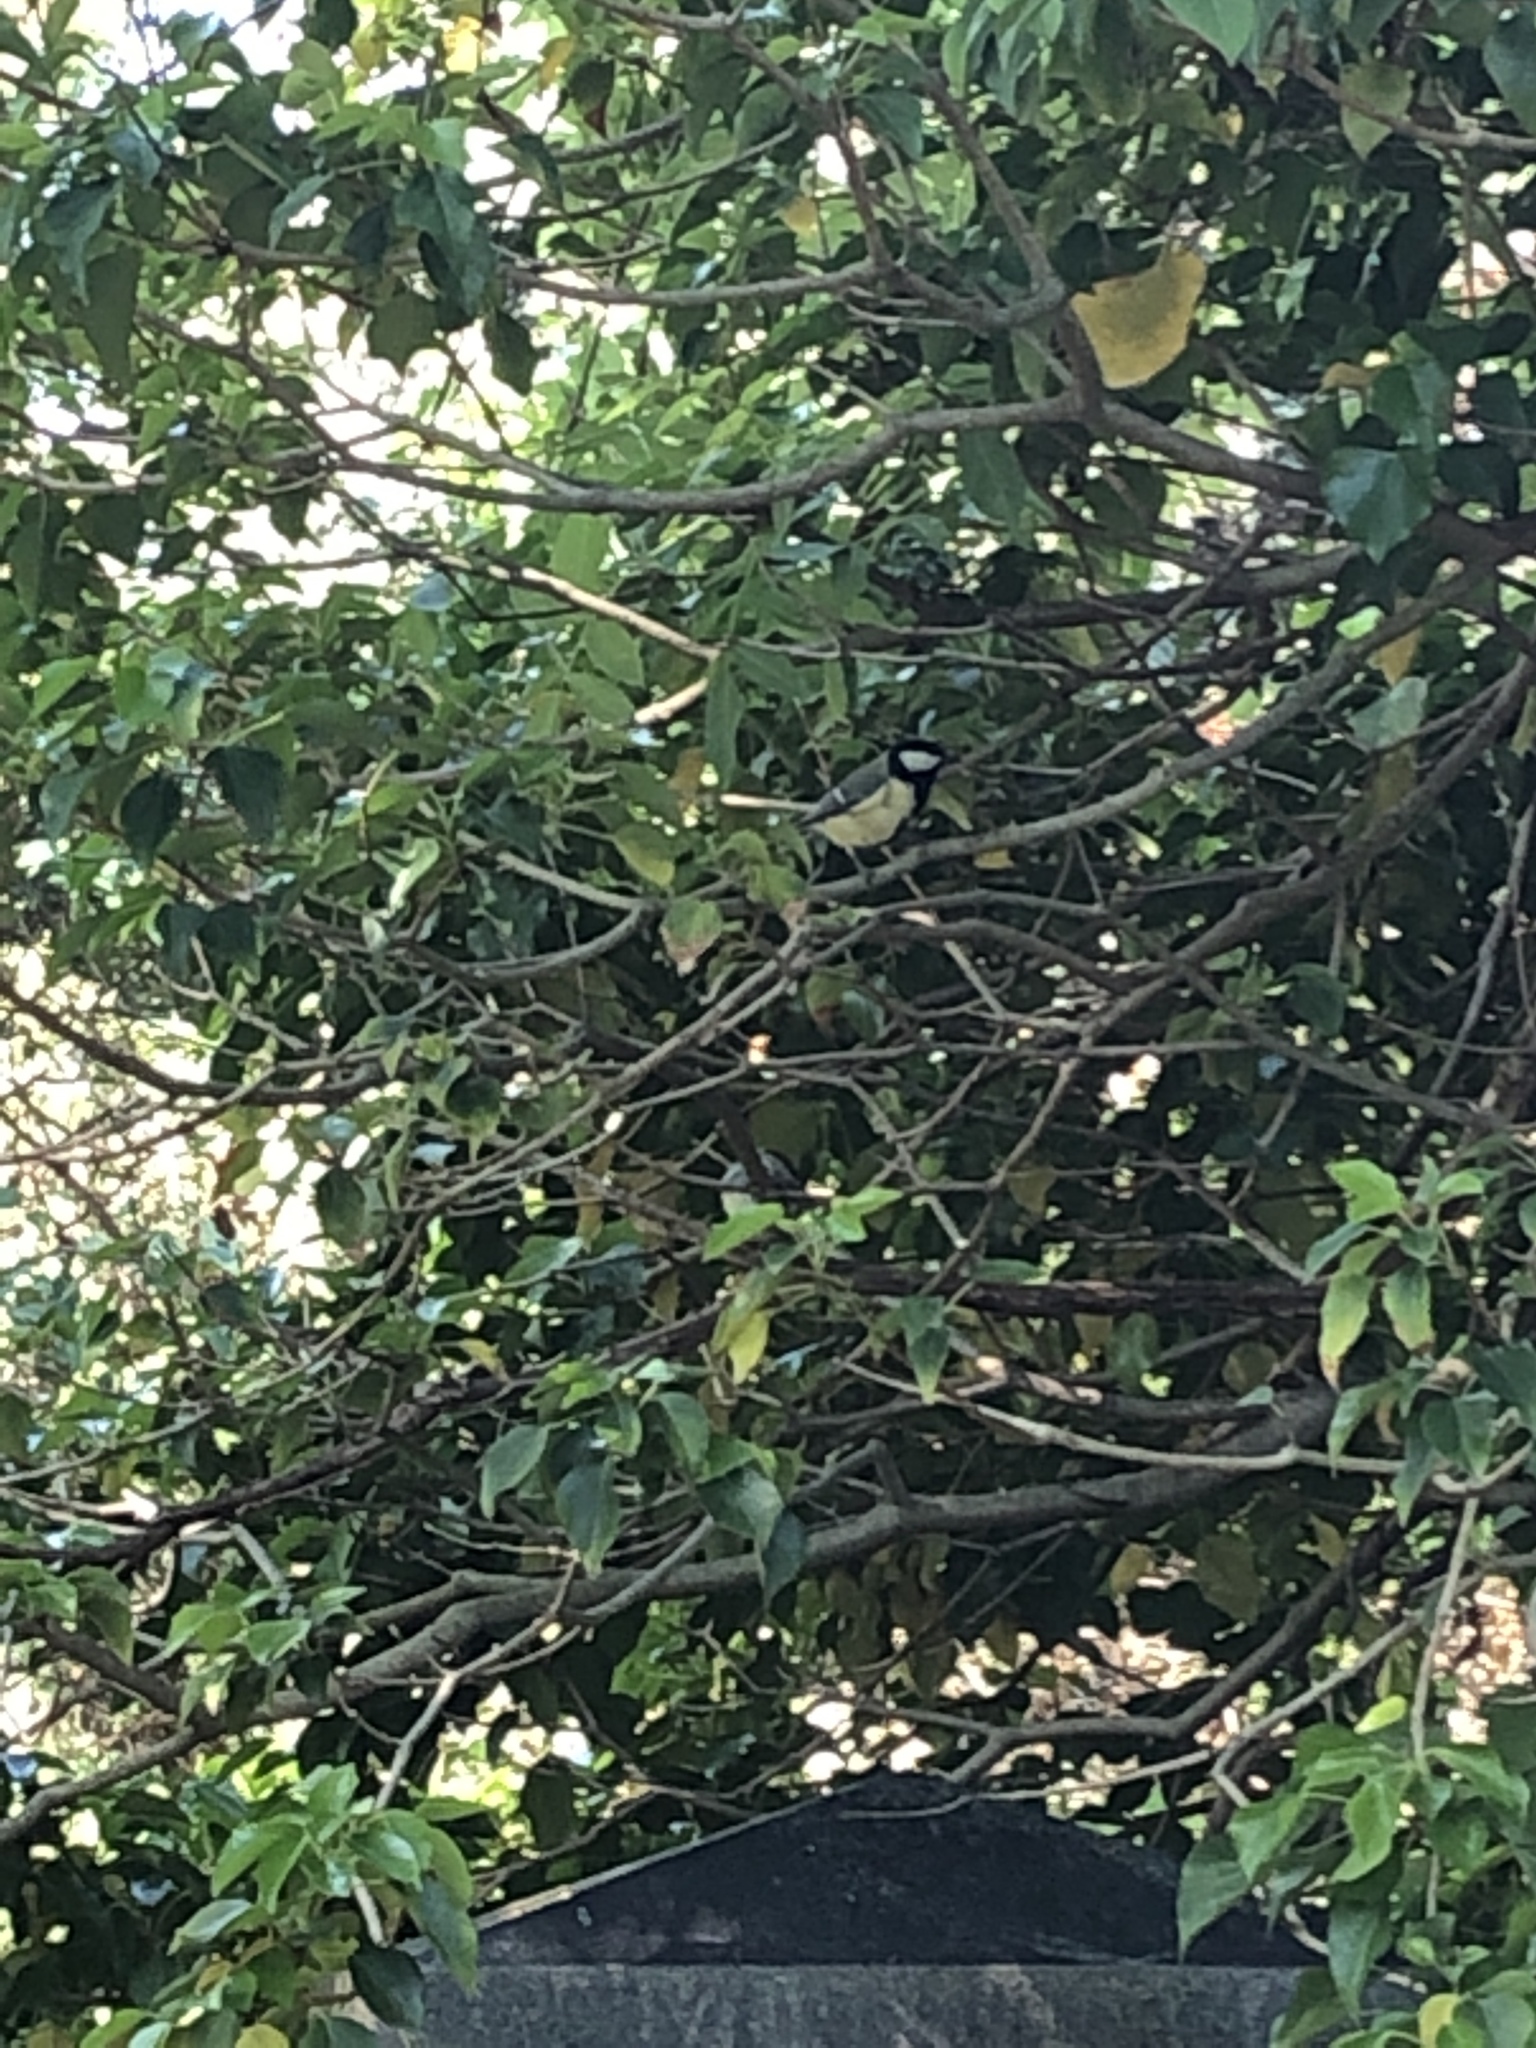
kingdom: Animalia
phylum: Chordata
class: Aves
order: Passeriformes
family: Paridae
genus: Parus
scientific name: Parus major
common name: Great tit
